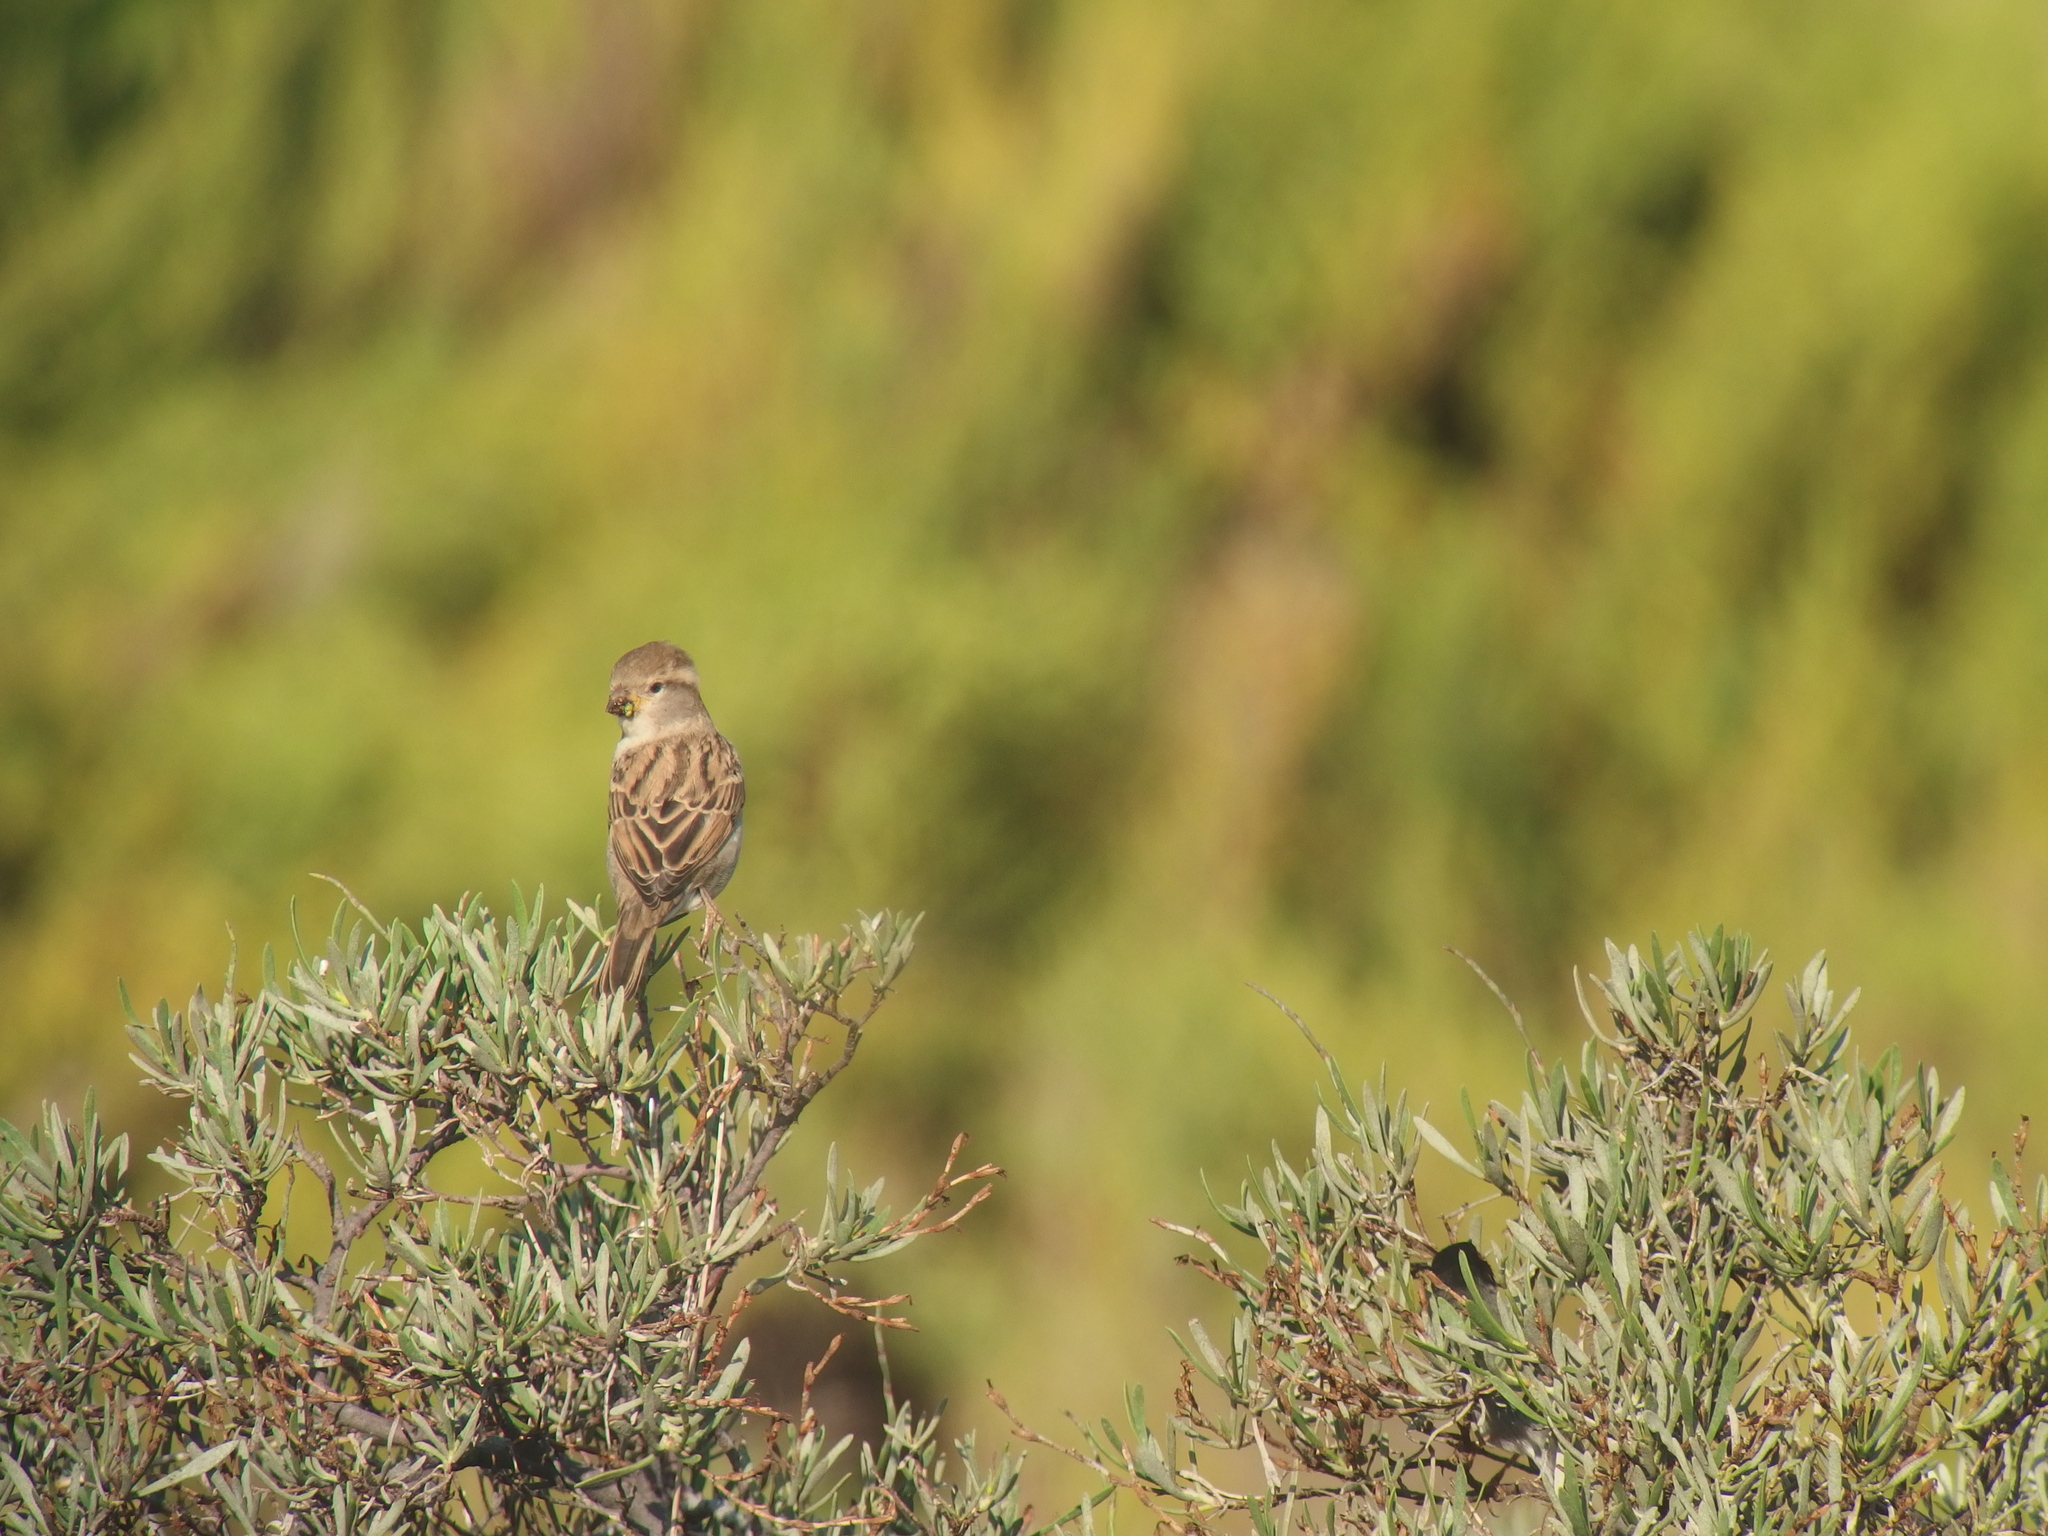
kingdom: Animalia
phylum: Chordata
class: Aves
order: Passeriformes
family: Passeridae
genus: Passer
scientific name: Passer domesticus
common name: House sparrow
